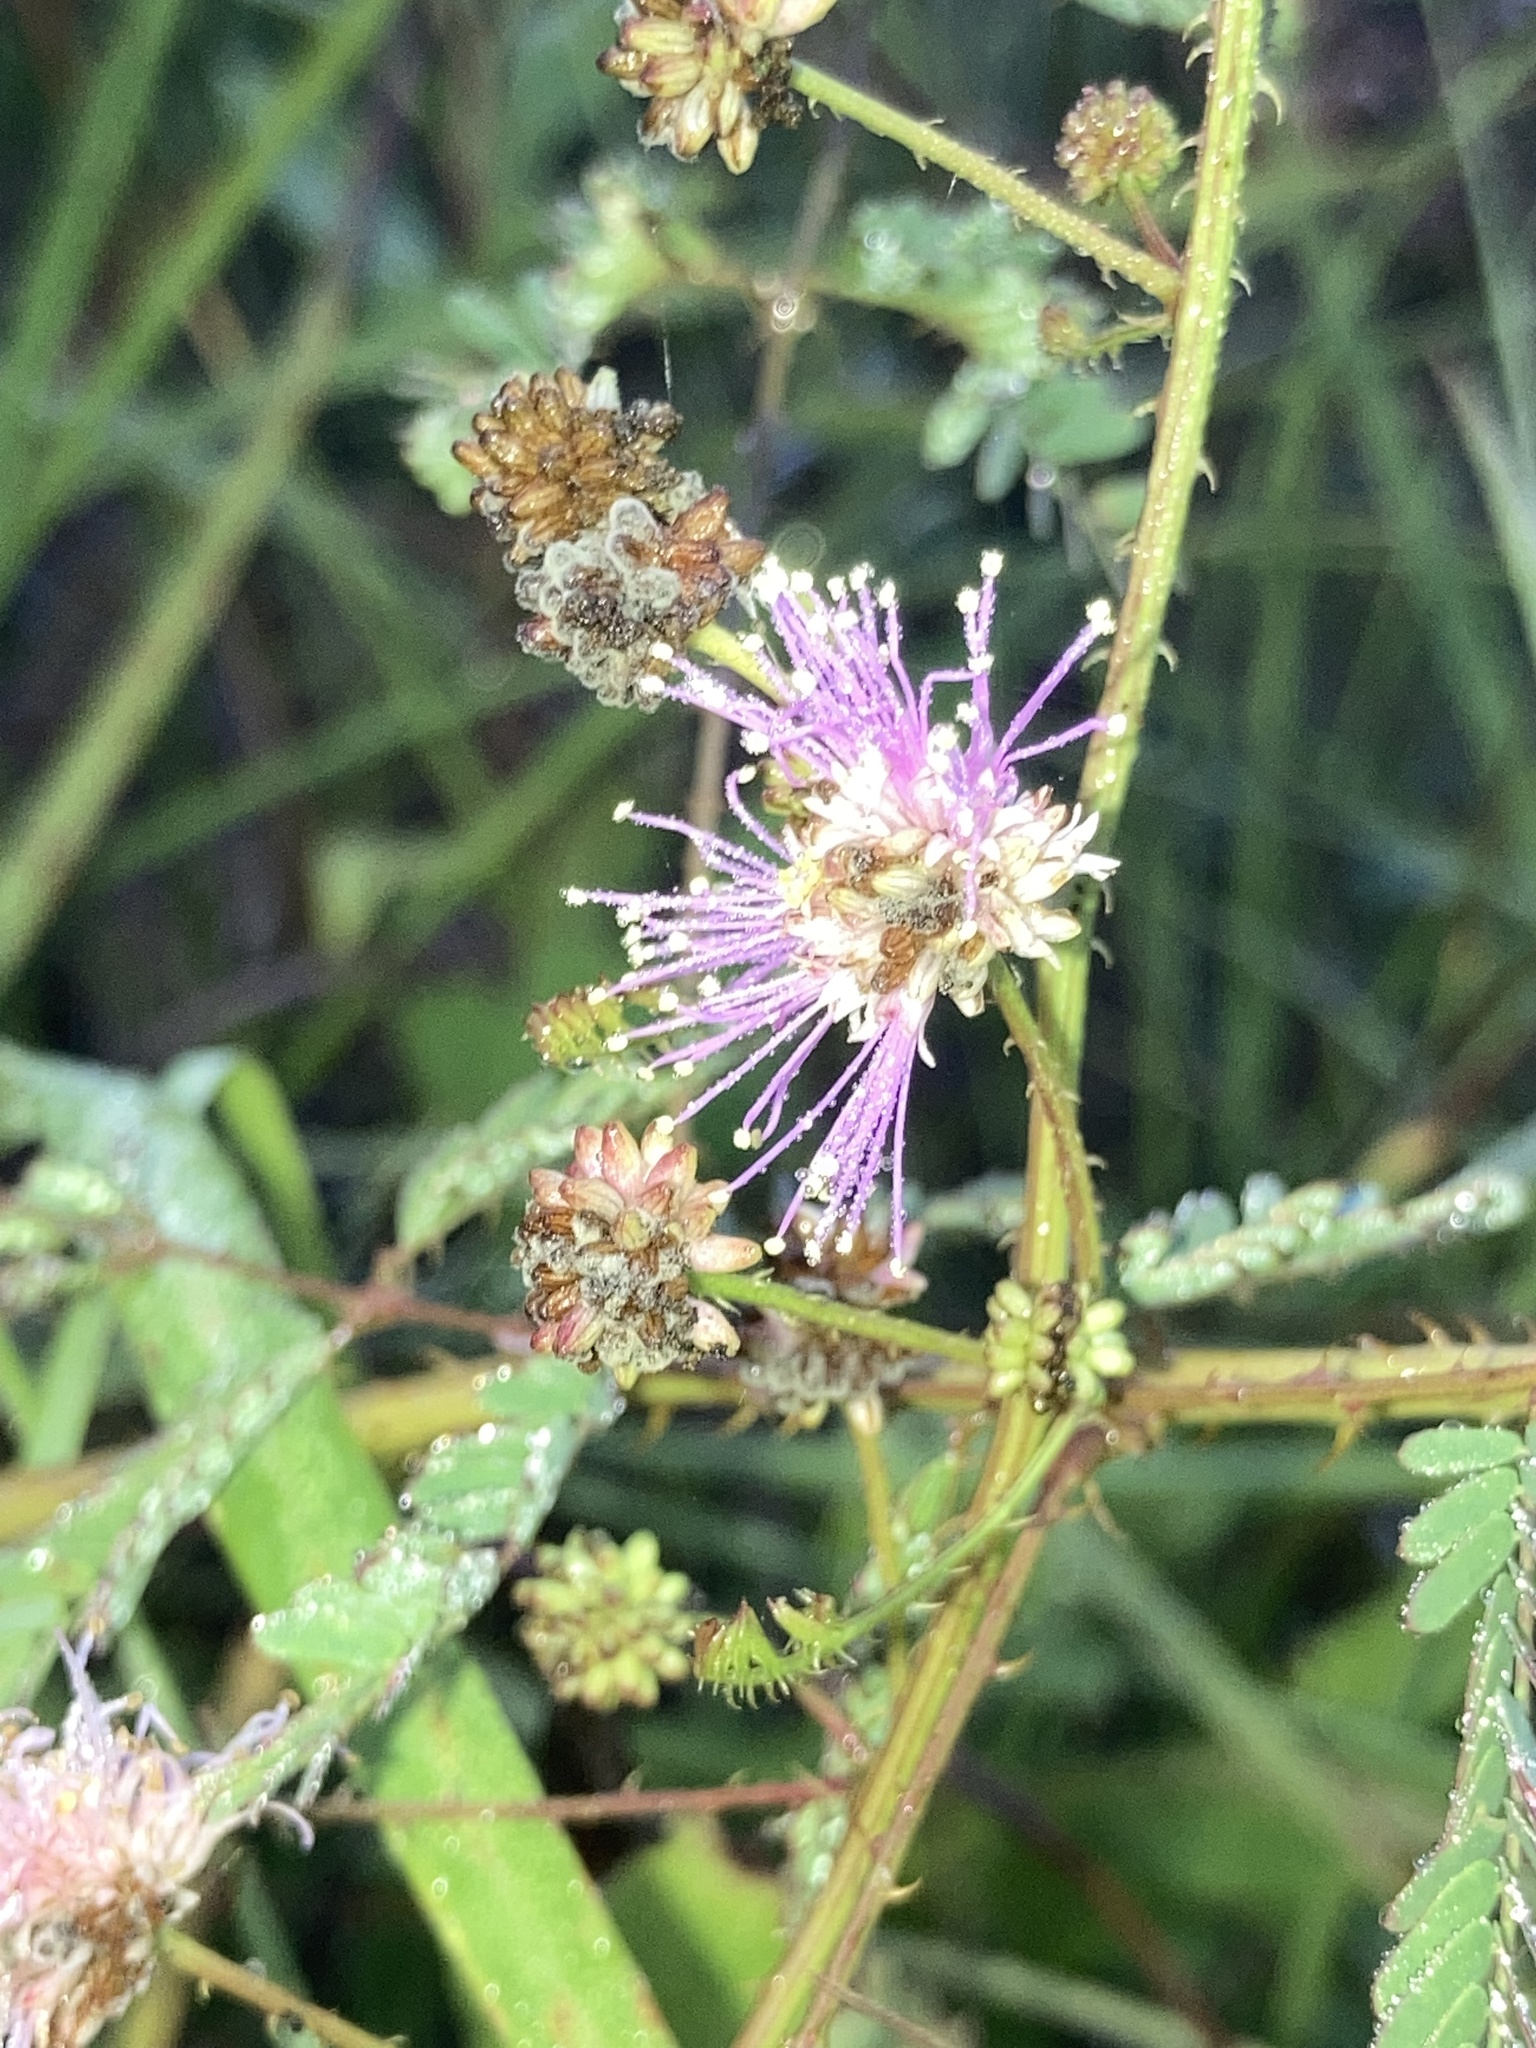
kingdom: Plantae
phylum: Tracheophyta
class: Magnoliopsida
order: Fabales
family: Fabaceae
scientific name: Fabaceae
